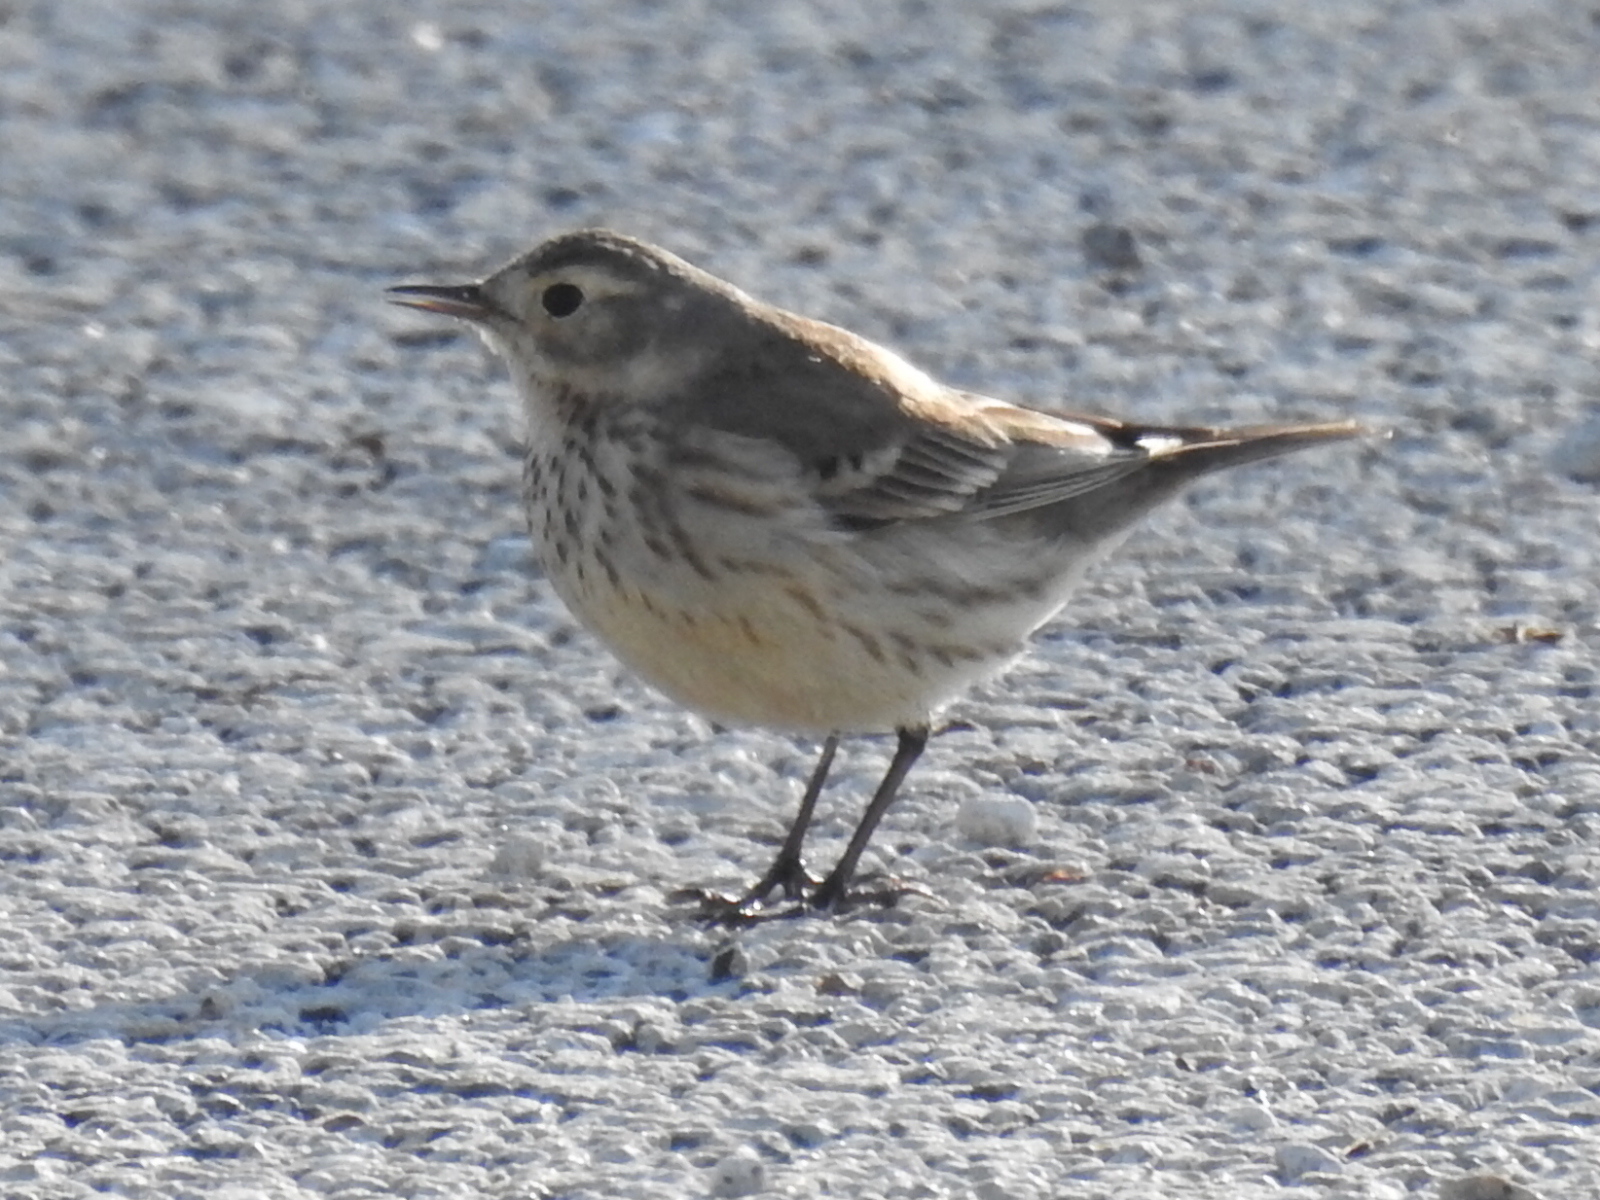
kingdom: Animalia
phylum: Chordata
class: Aves
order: Passeriformes
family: Motacillidae
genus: Anthus
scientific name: Anthus rubescens
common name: Buff-bellied pipit
